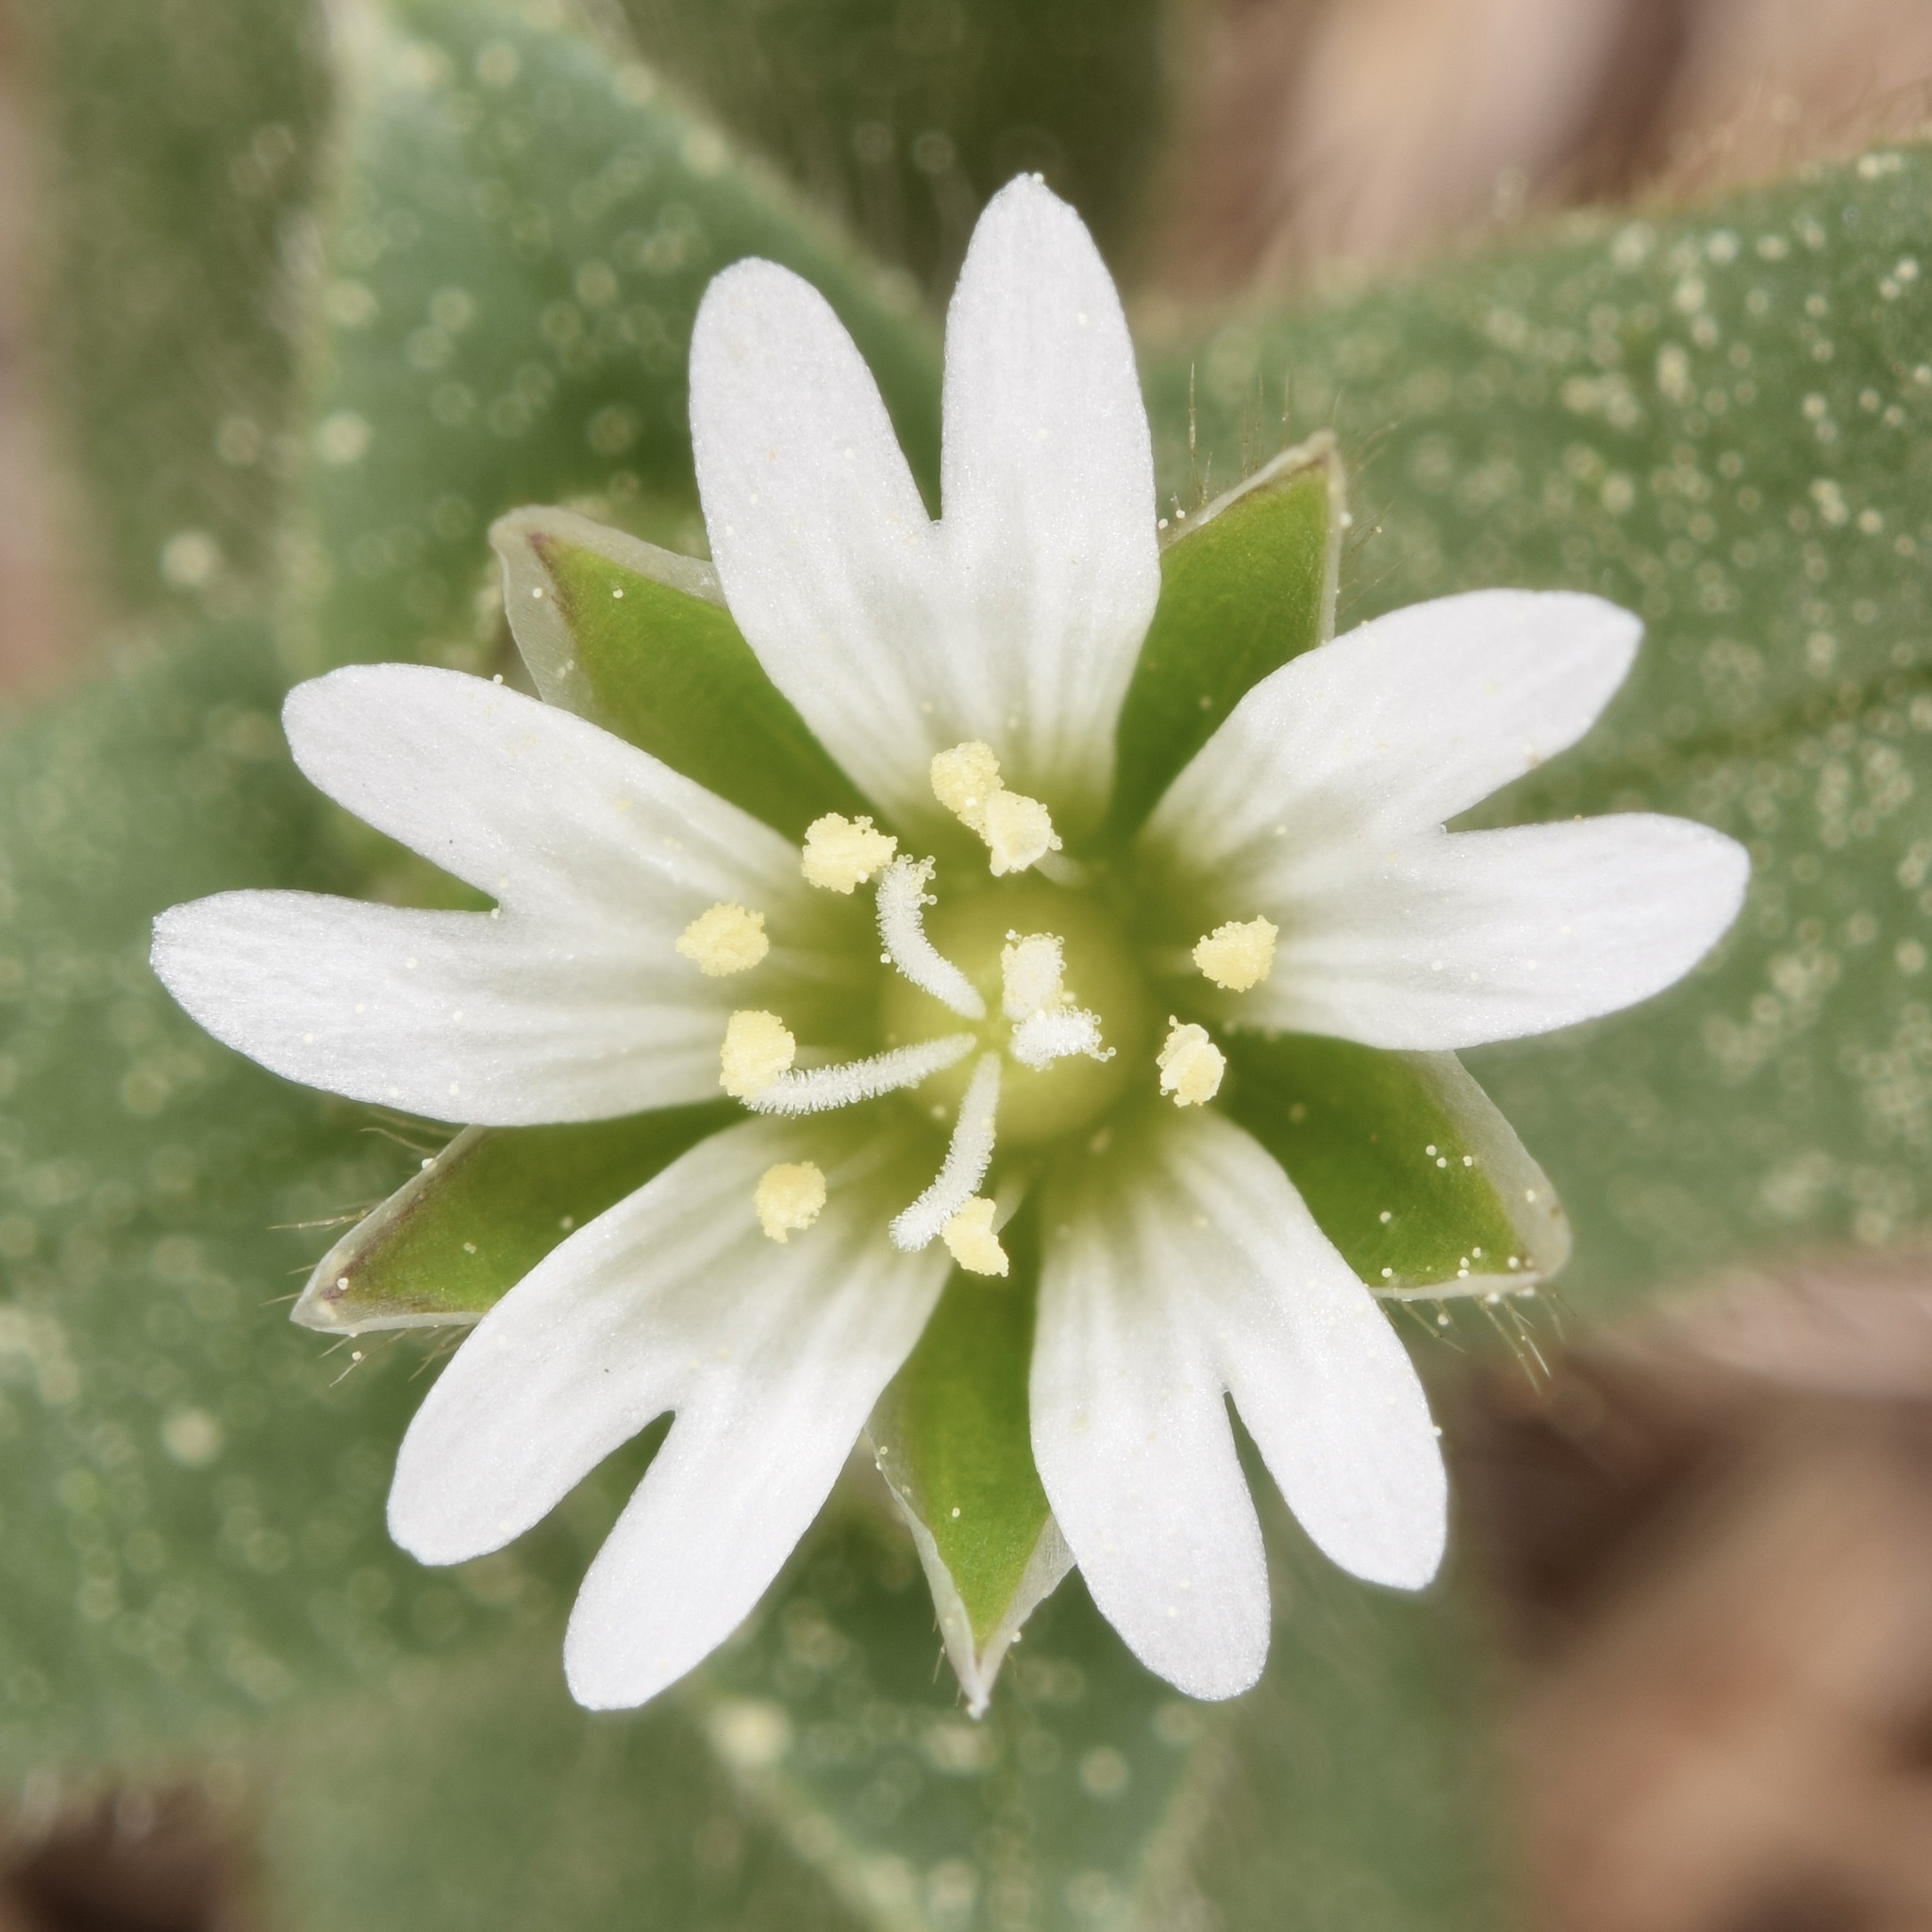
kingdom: Plantae
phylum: Tracheophyta
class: Magnoliopsida
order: Caryophyllales
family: Caryophyllaceae
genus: Cerastium
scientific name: Cerastium fontanum
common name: Common mouse-ear
